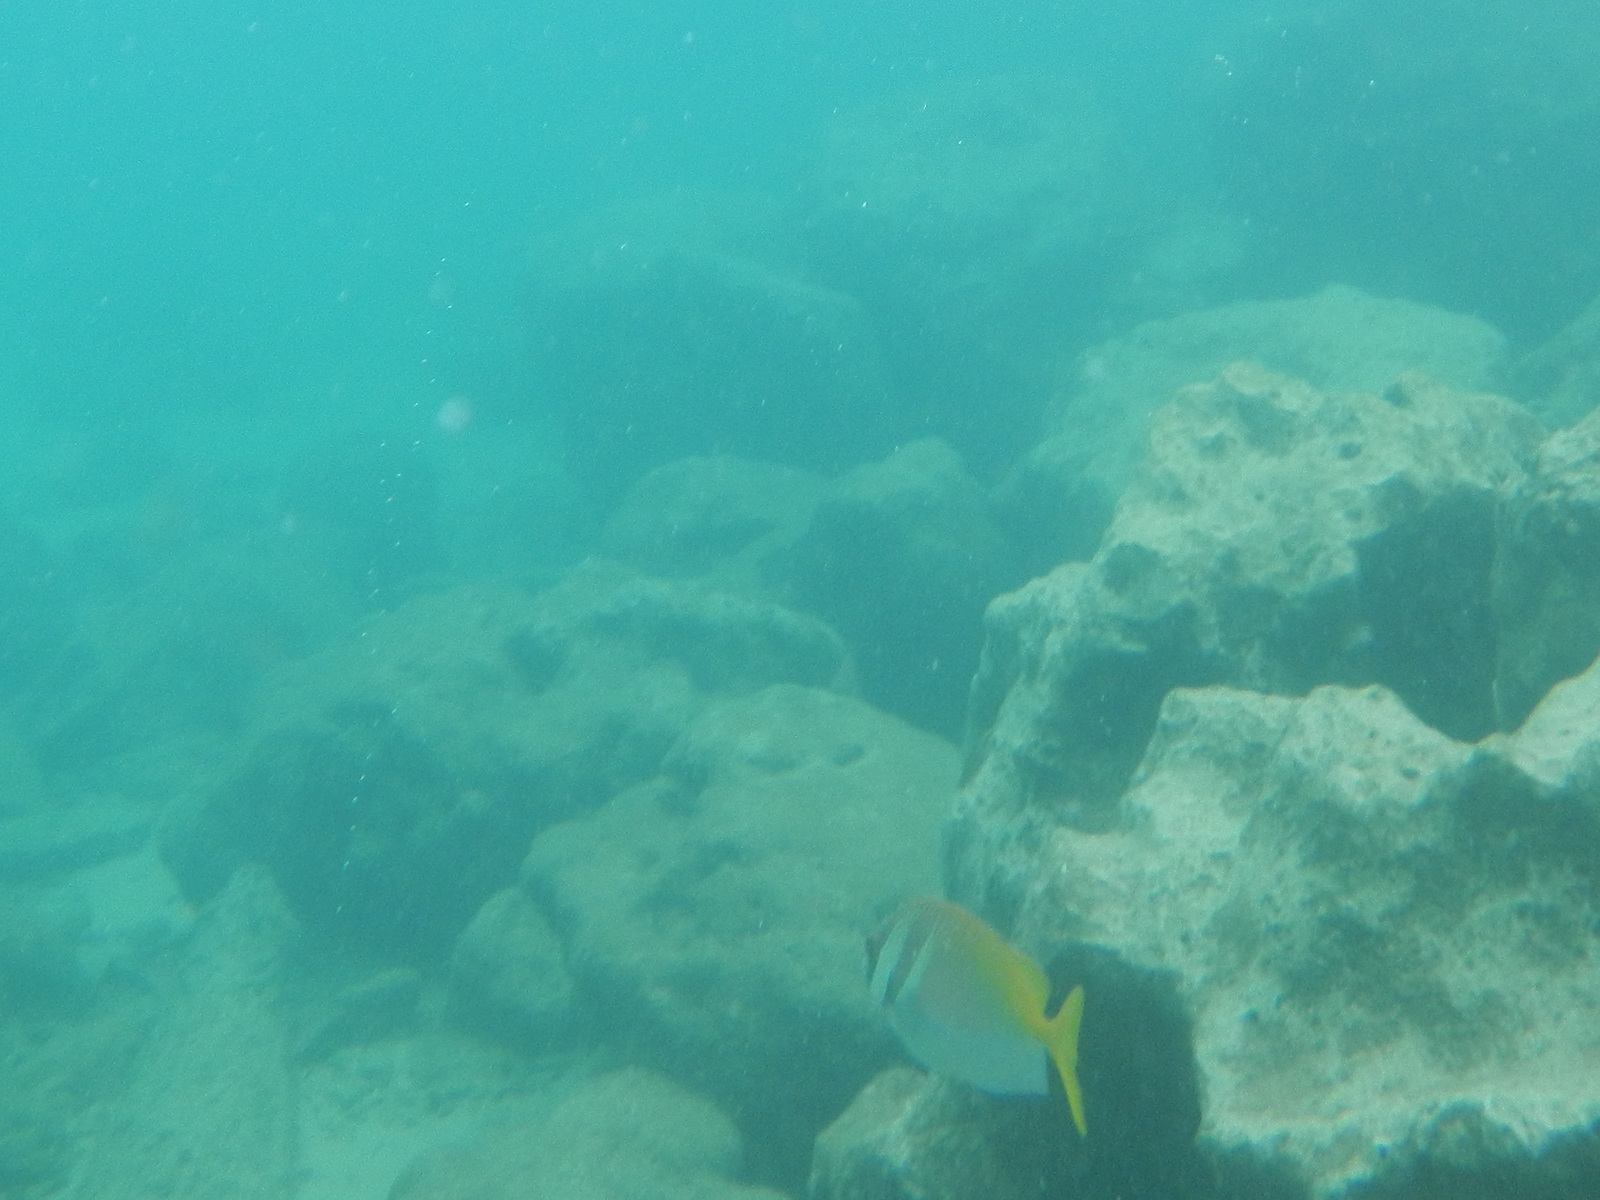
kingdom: Animalia
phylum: Chordata
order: Perciformes
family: Siganidae
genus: Siganus
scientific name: Siganus virgatus
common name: Barhead spinefoot
